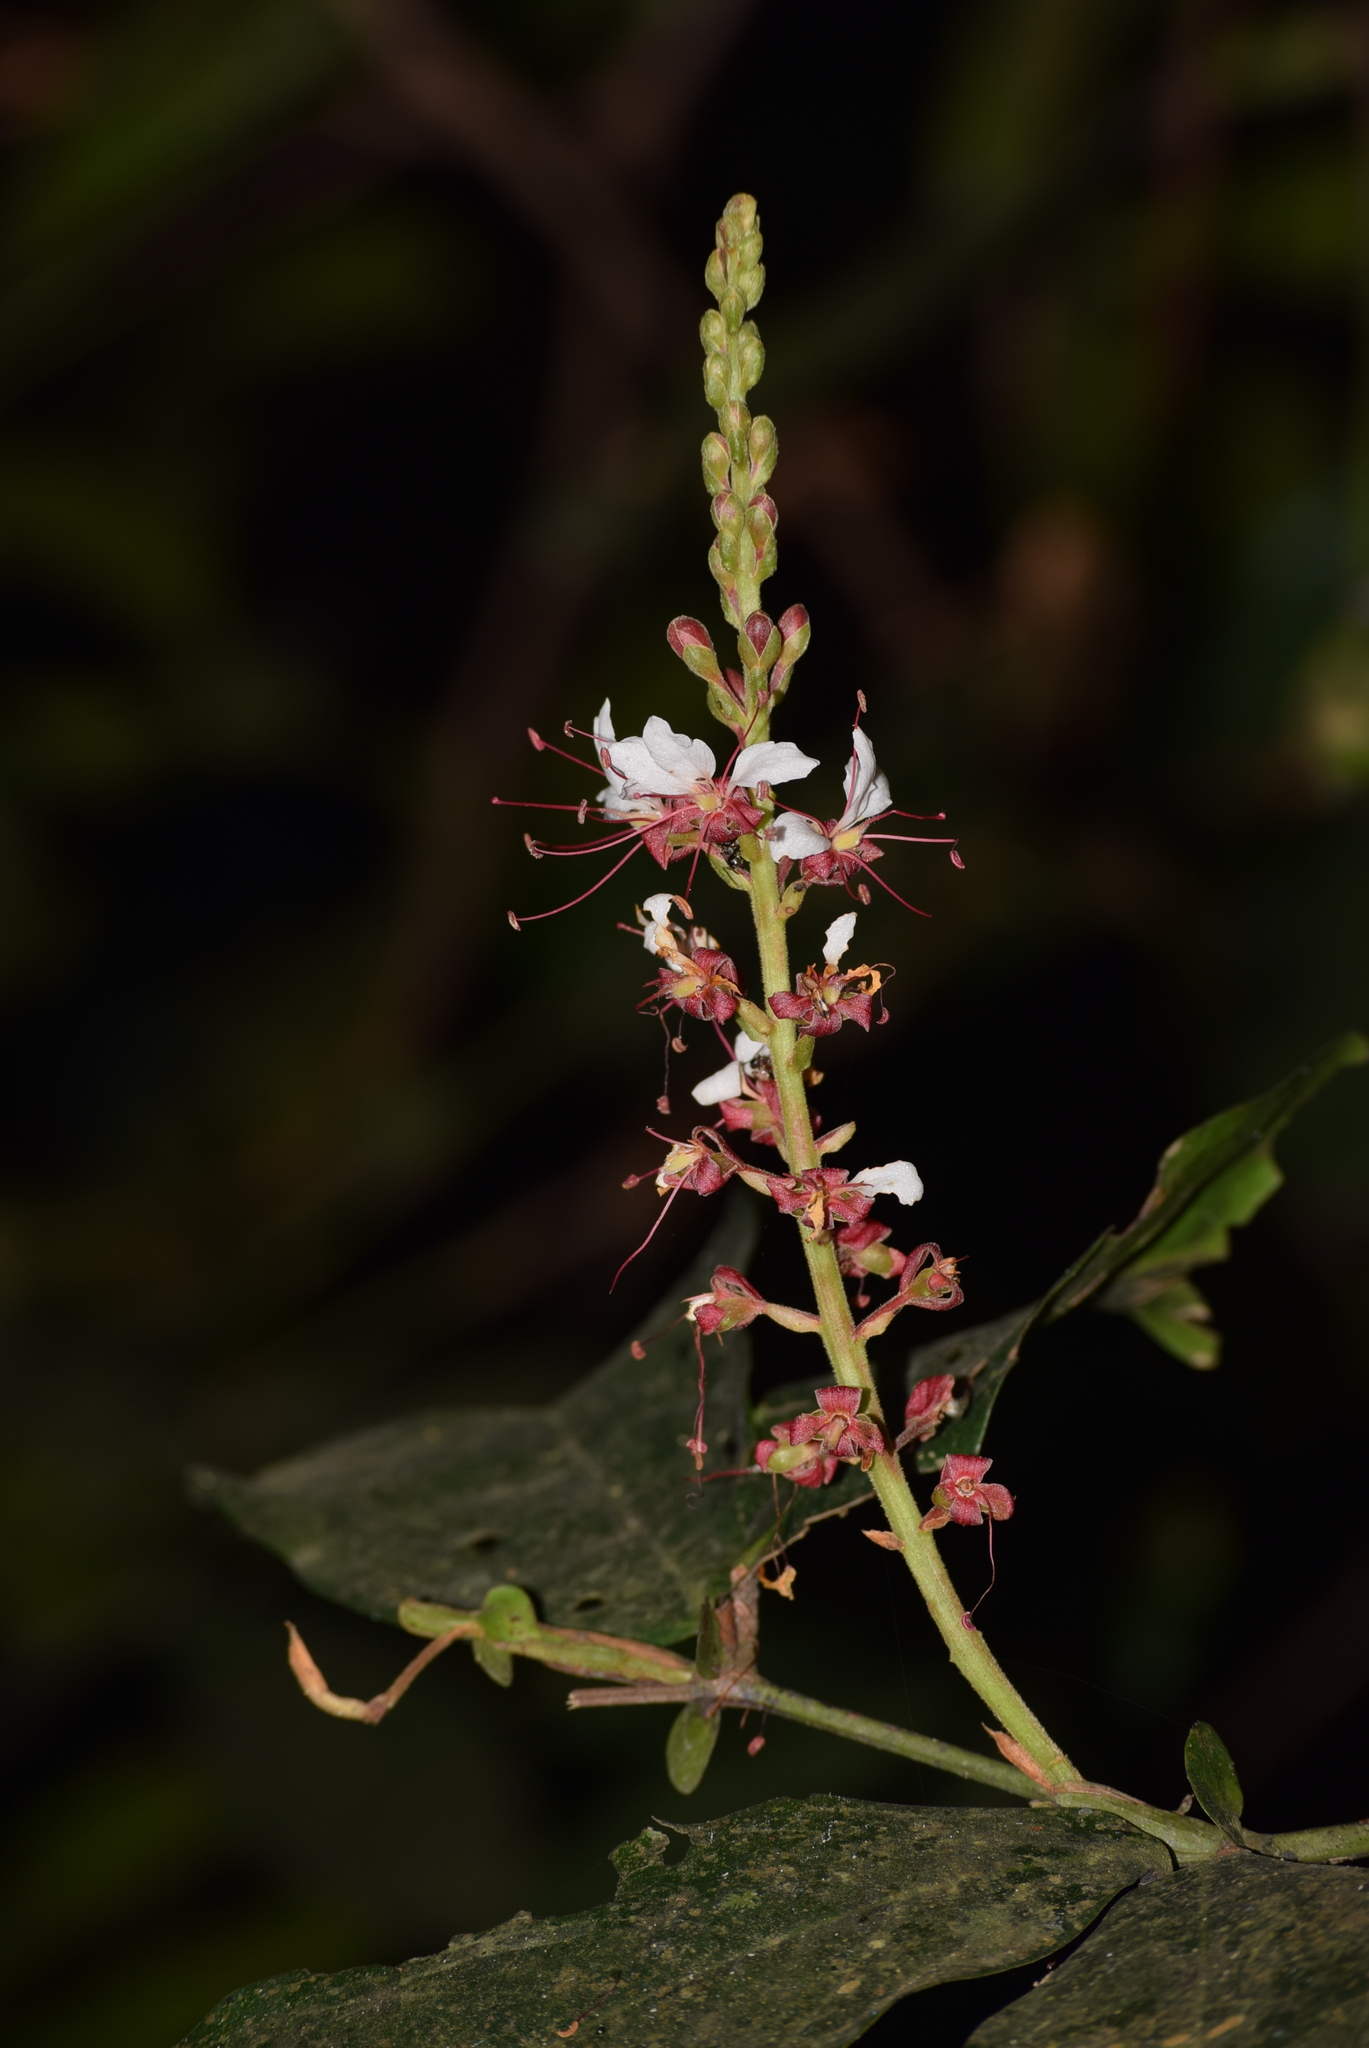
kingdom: Plantae
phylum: Tracheophyta
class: Magnoliopsida
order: Fabales
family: Fabaceae
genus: Humboldtia
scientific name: Humboldtia brunonis
